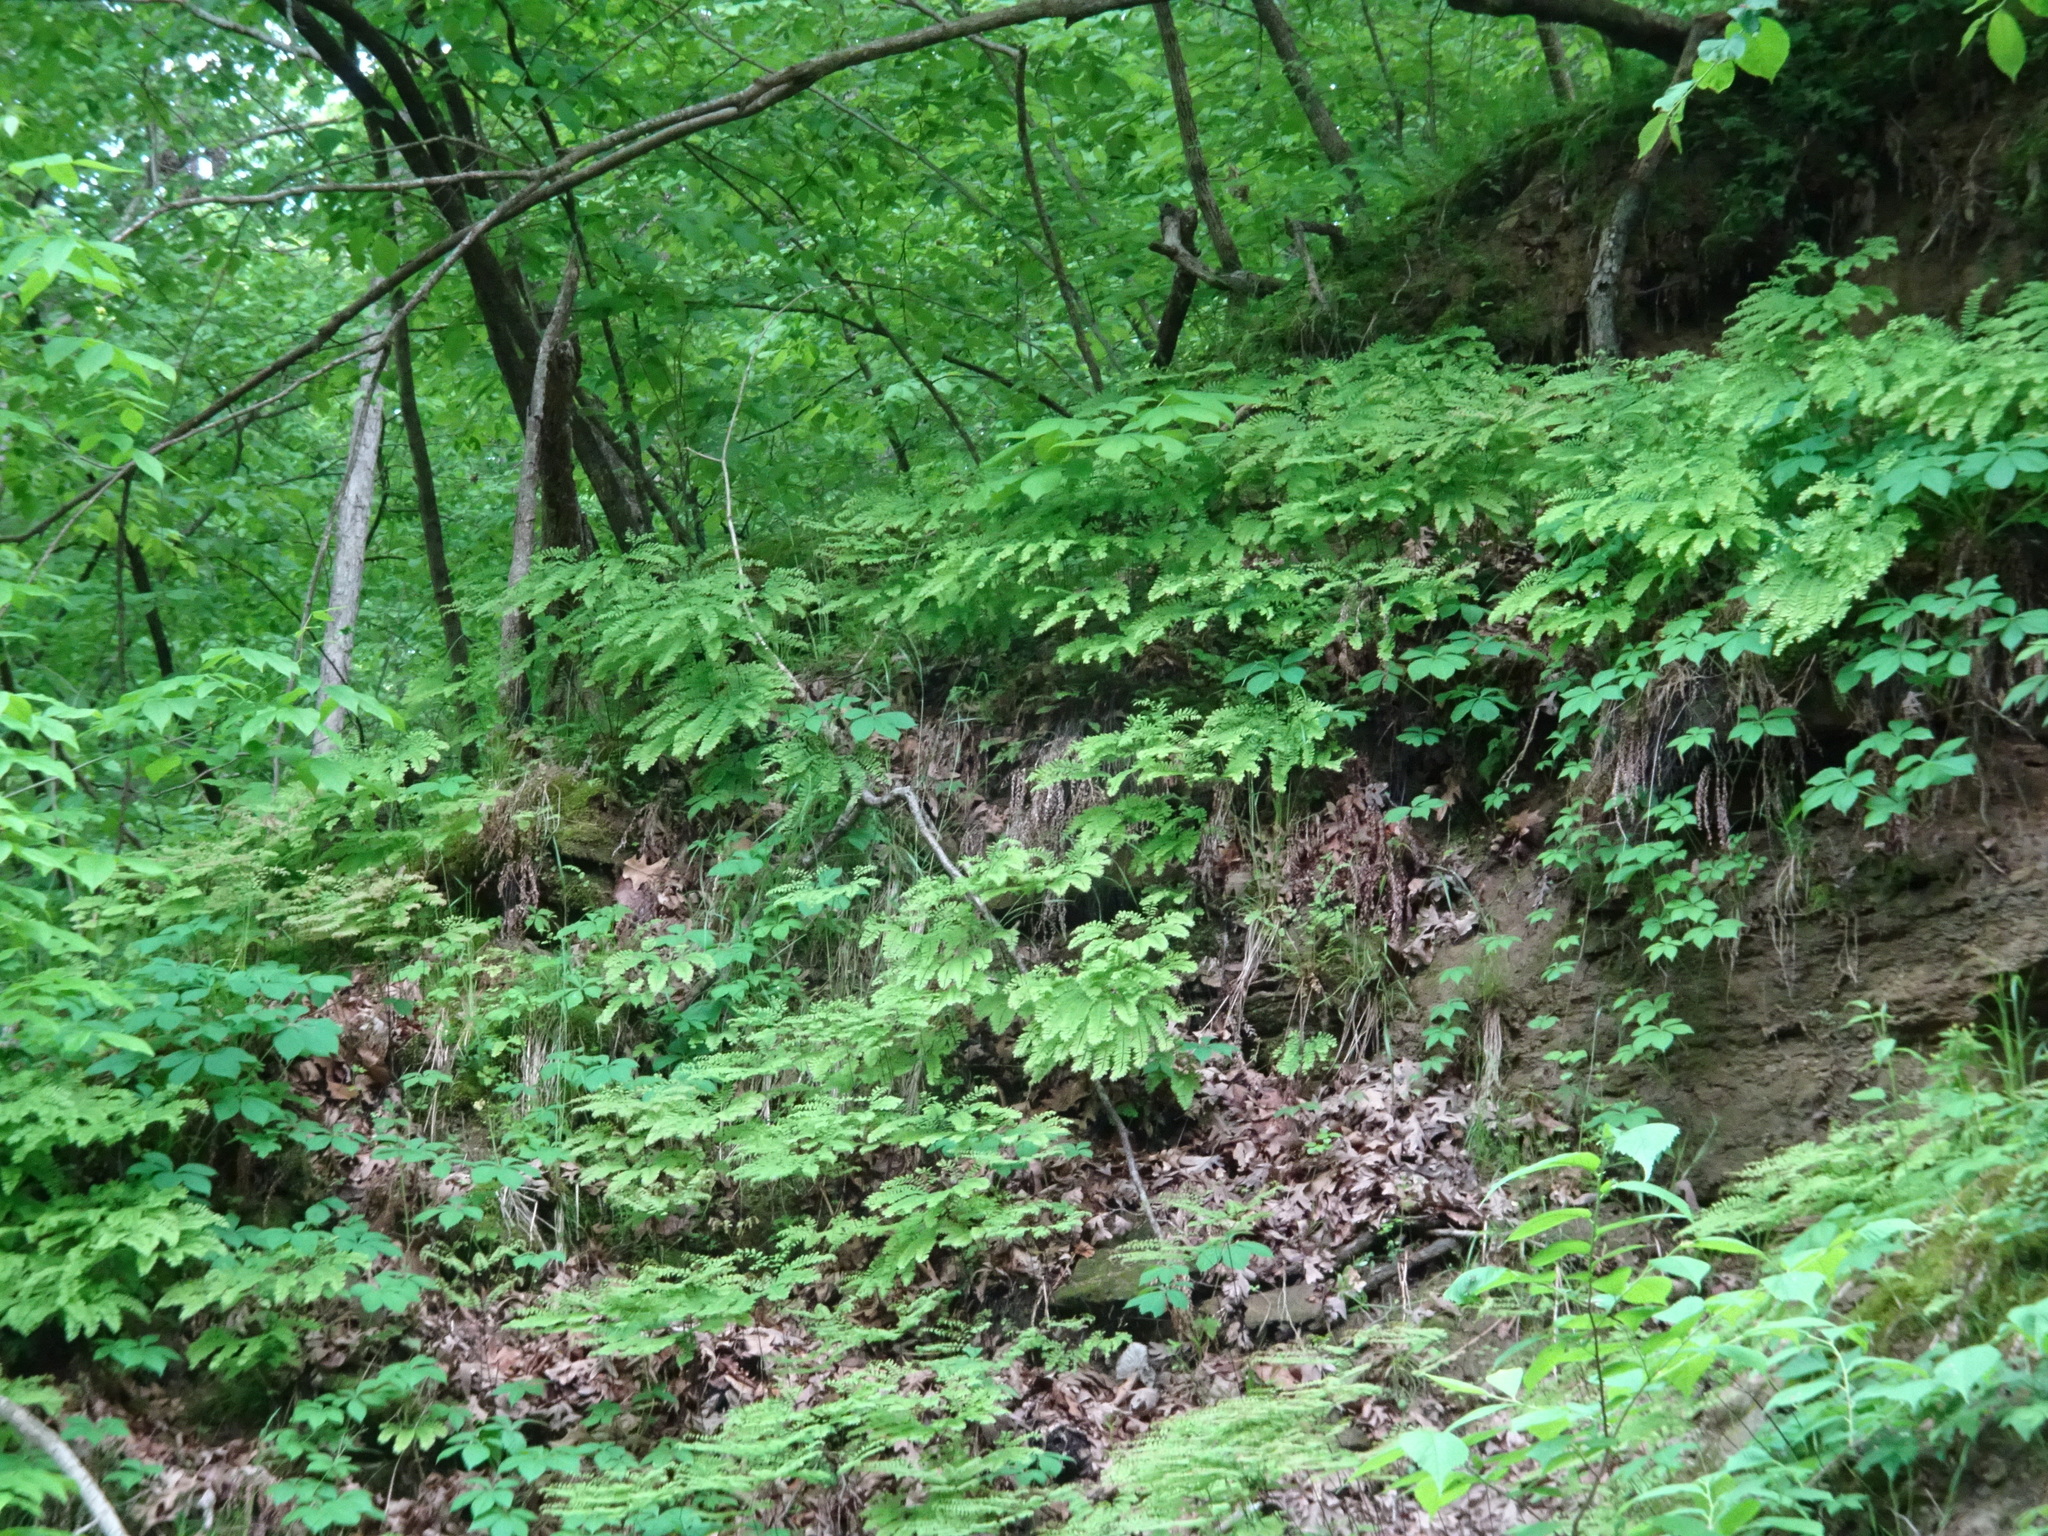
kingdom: Plantae
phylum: Tracheophyta
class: Polypodiopsida
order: Polypodiales
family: Pteridaceae
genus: Adiantum
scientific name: Adiantum pedatum
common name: Five-finger fern
